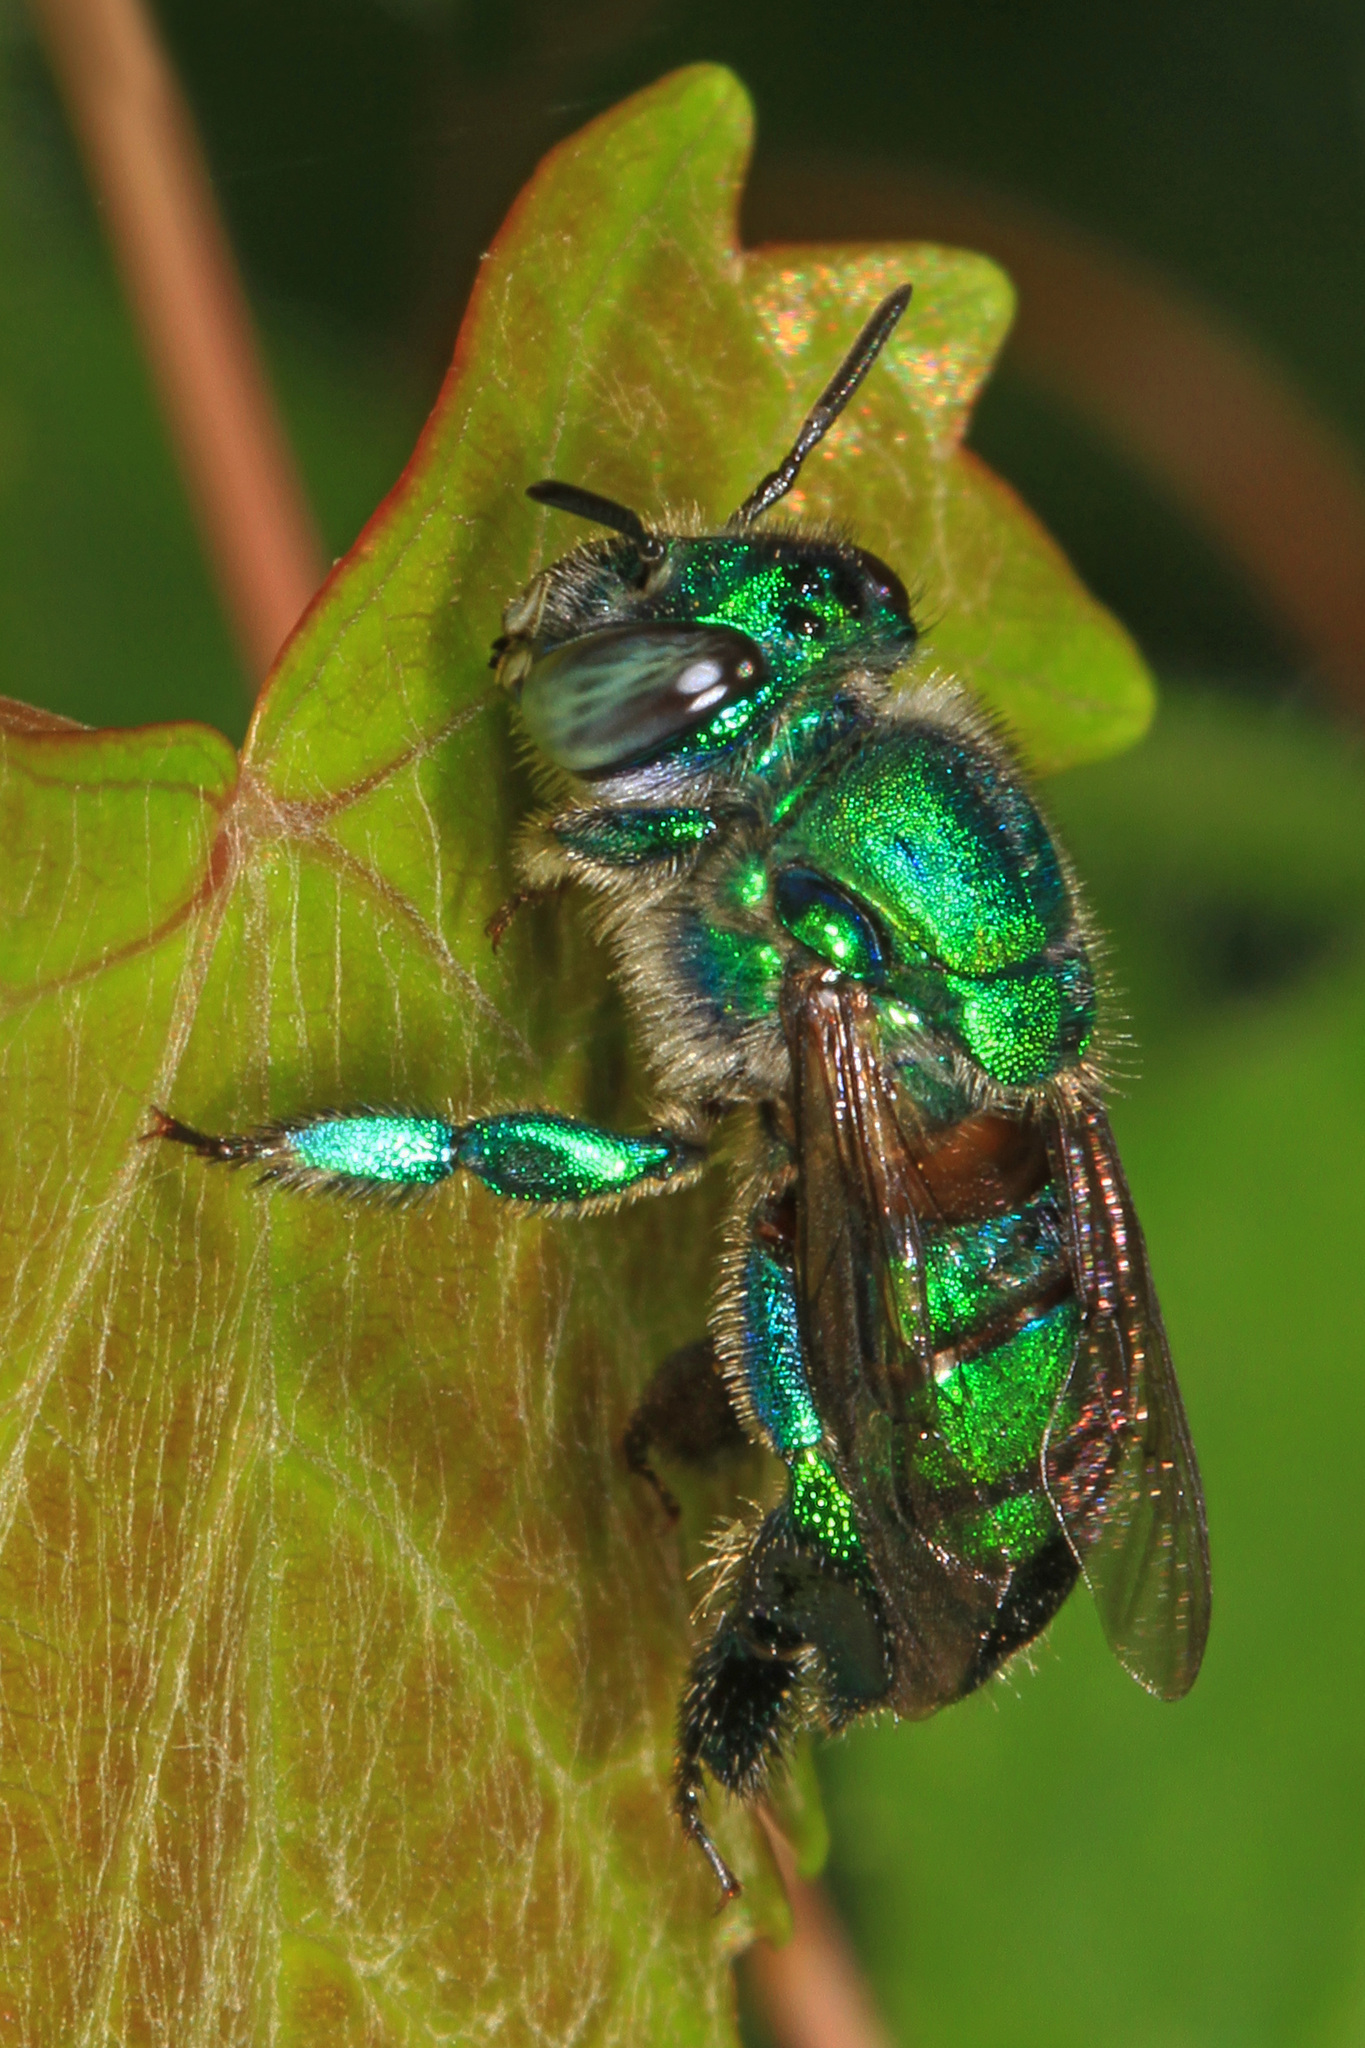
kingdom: Animalia
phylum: Arthropoda
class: Insecta
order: Hymenoptera
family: Apidae
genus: Euglossa
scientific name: Euglossa dilemma
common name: Green orchid bee
